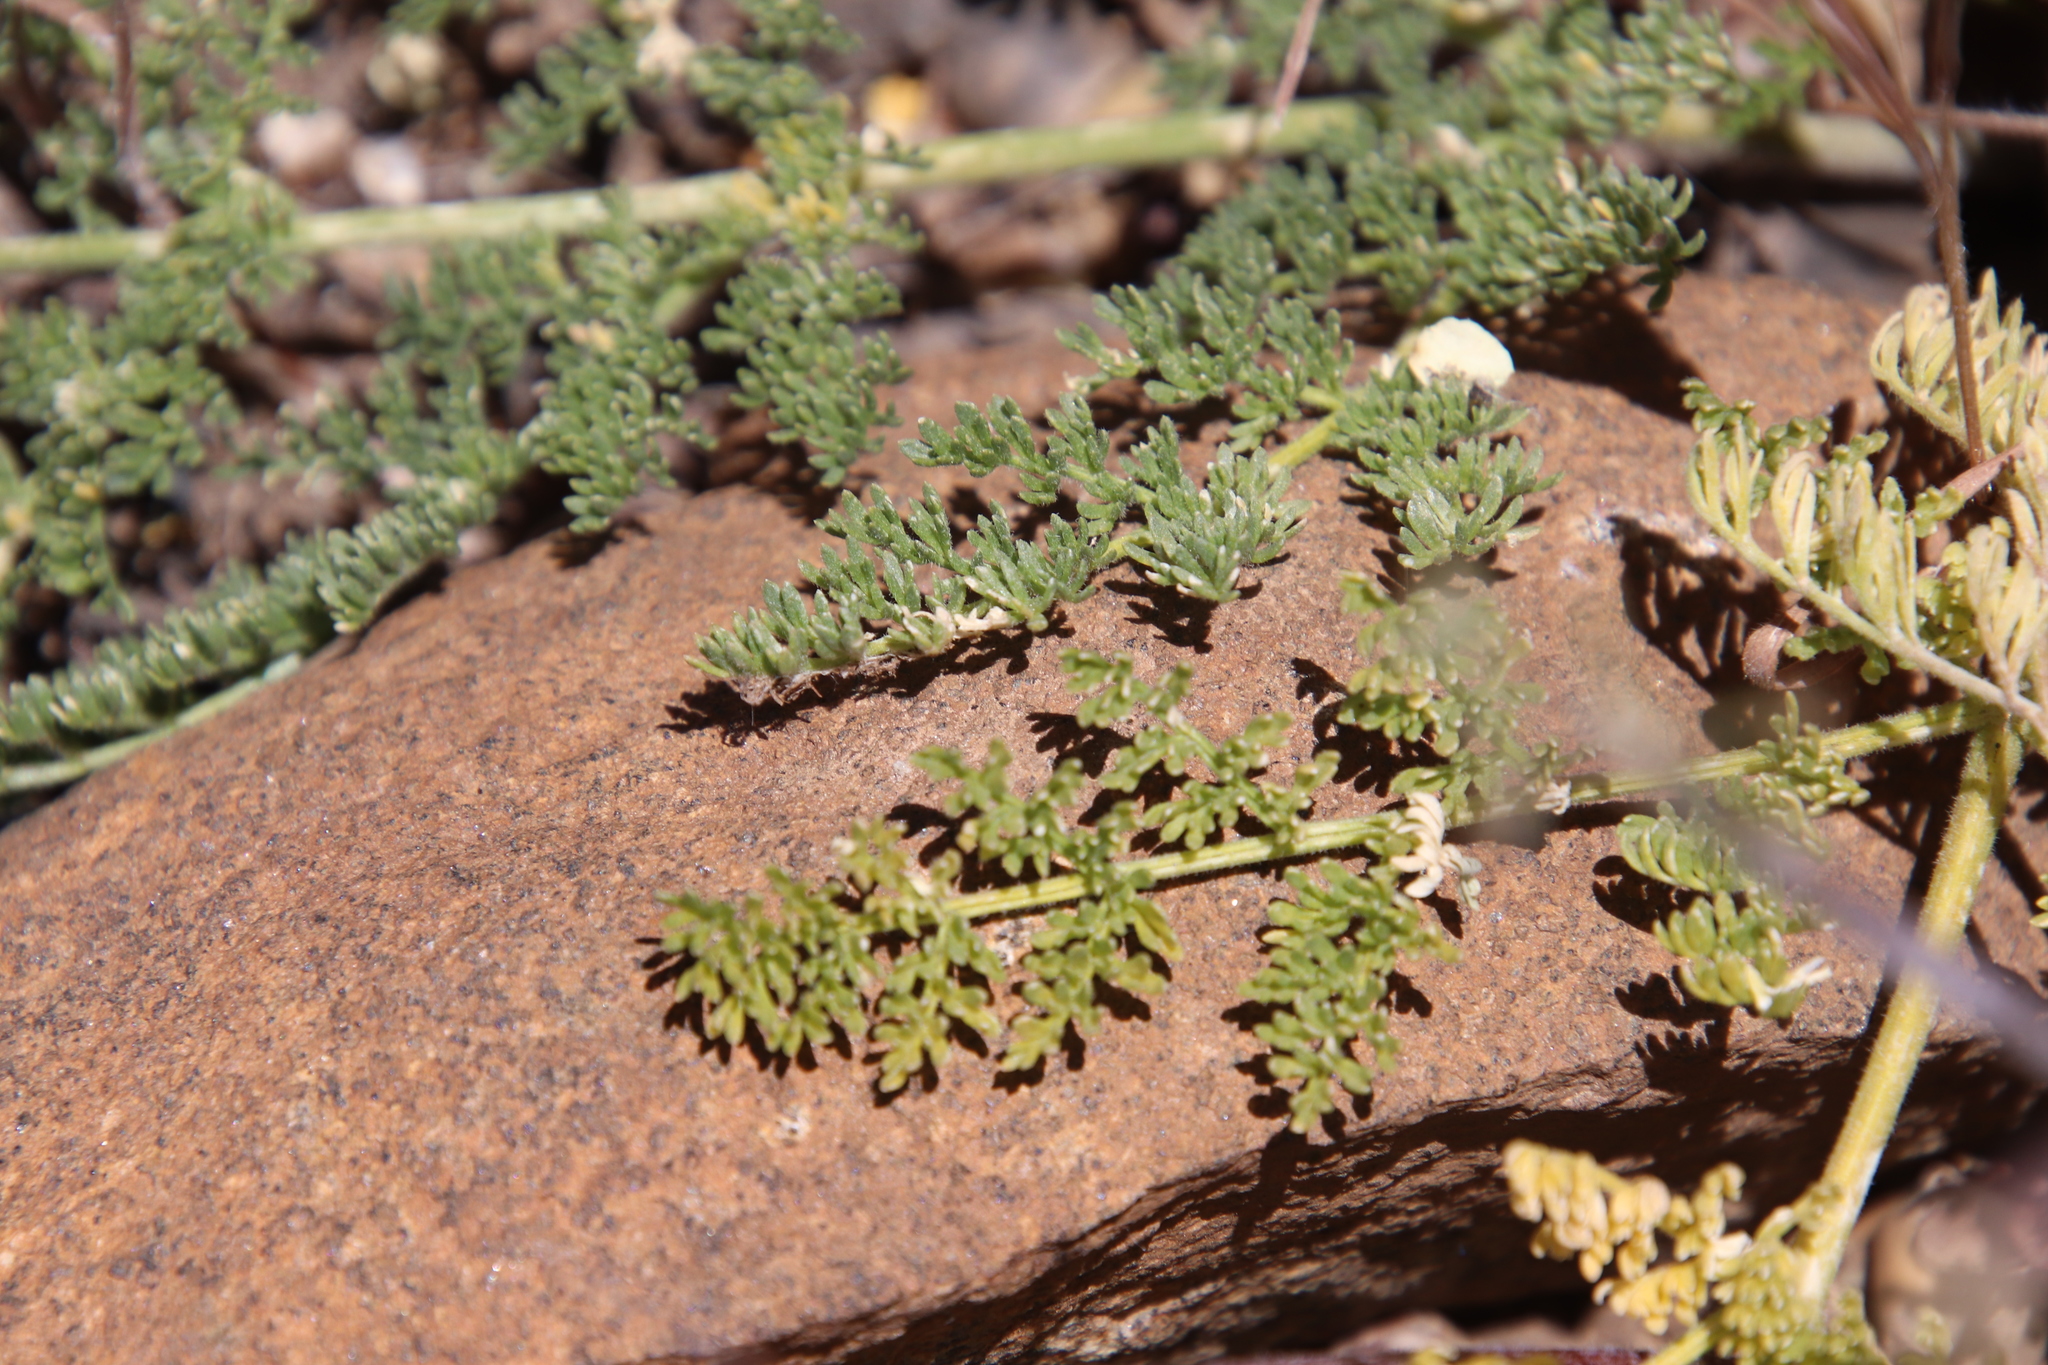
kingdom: Plantae
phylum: Tracheophyta
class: Magnoliopsida
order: Apiales
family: Apiaceae
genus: Lomatium
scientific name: Lomatium dasycarpum
